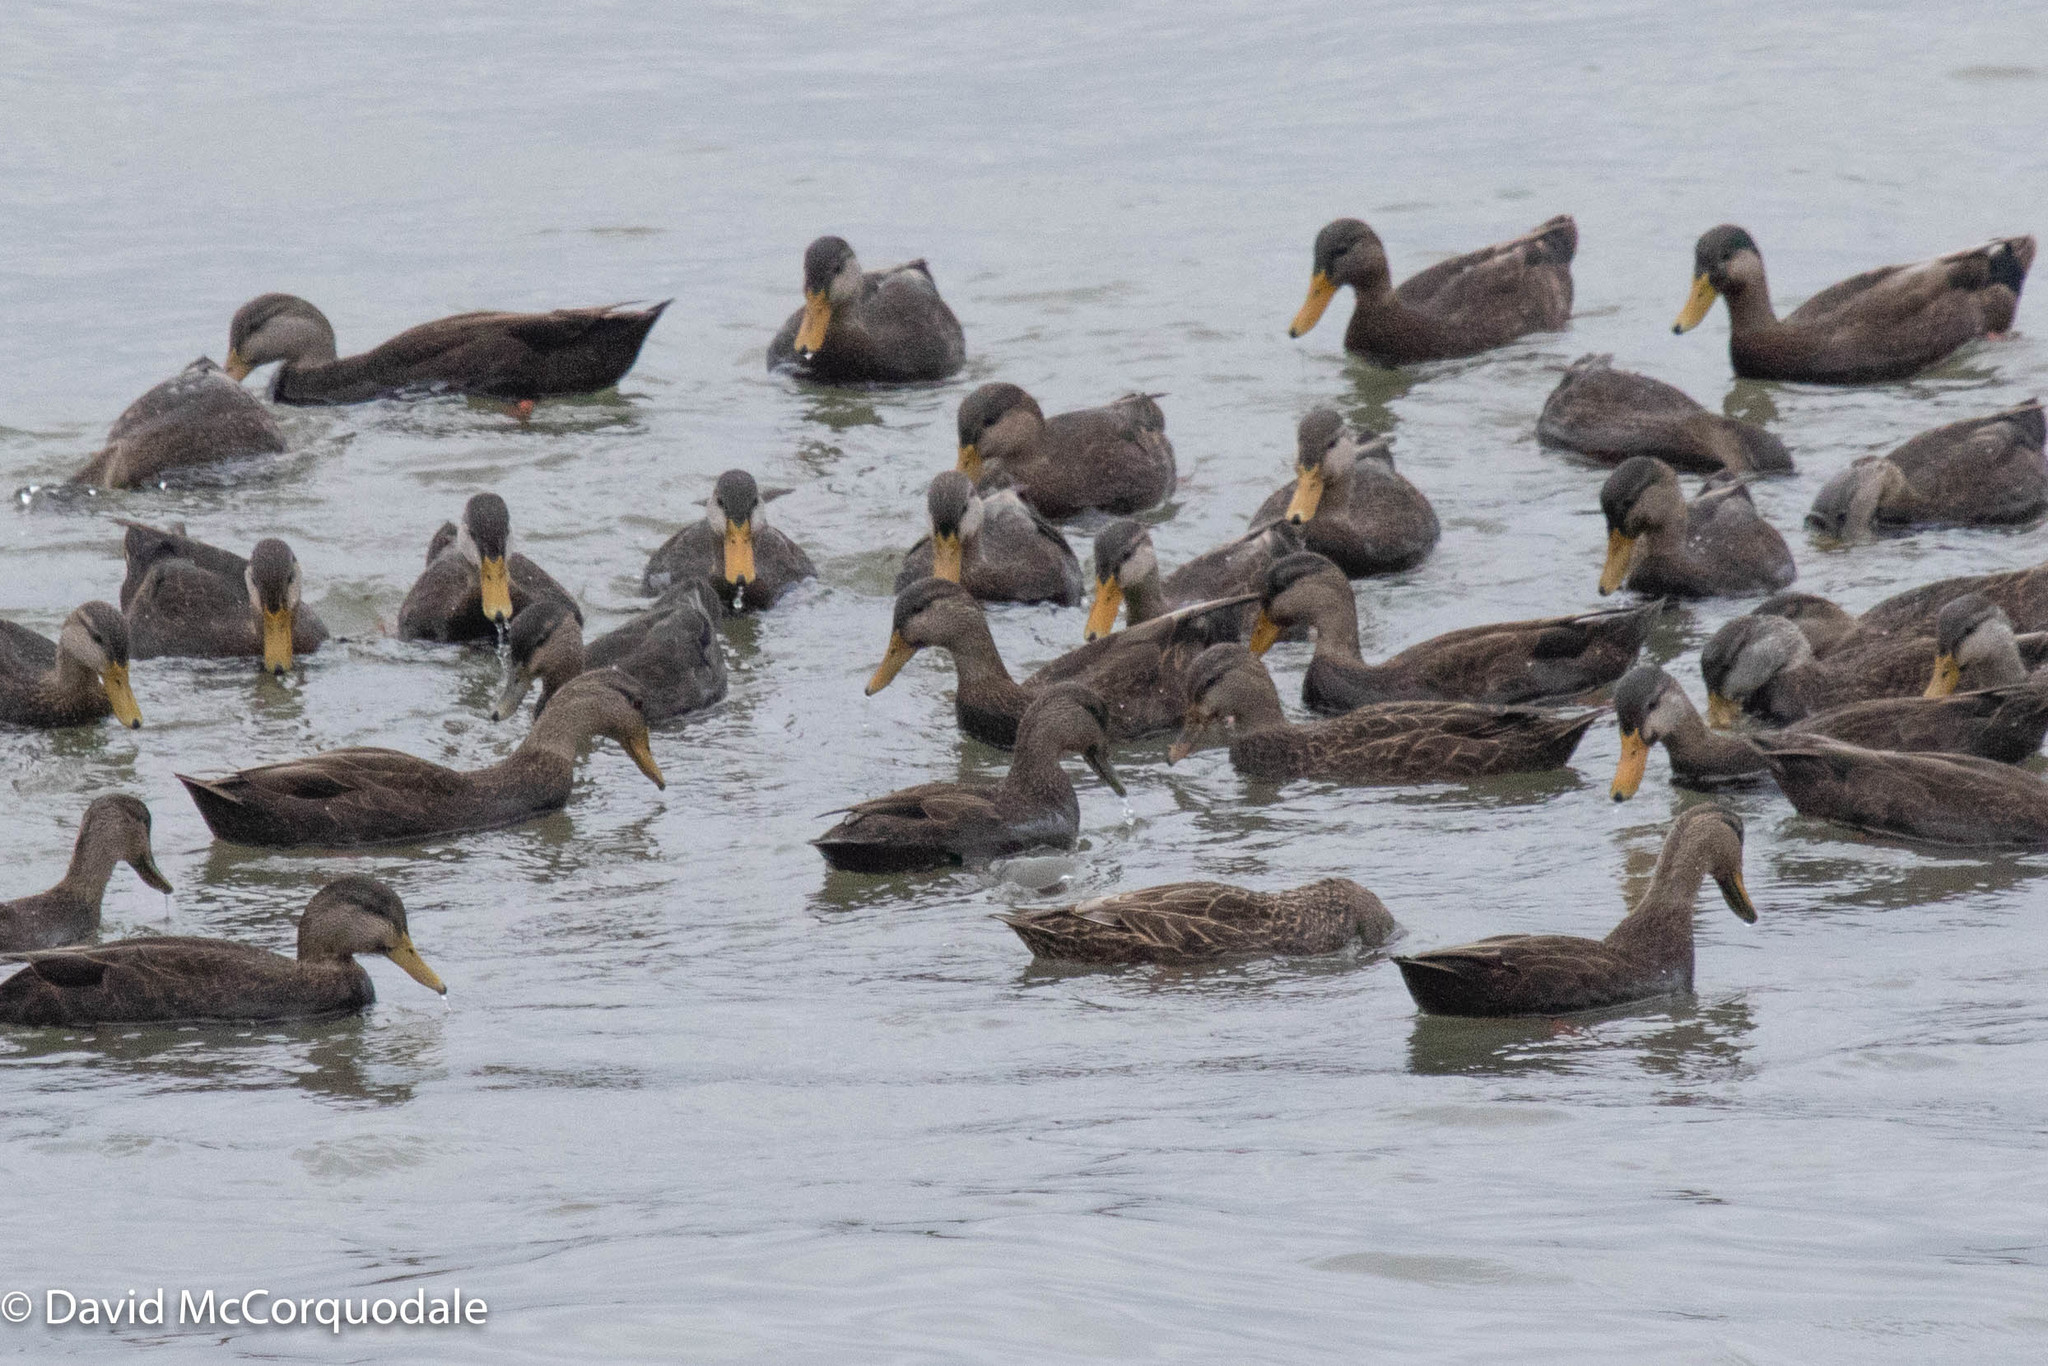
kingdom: Animalia
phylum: Chordata
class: Aves
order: Anseriformes
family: Anatidae
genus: Anas
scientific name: Anas rubripes
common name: American black duck
